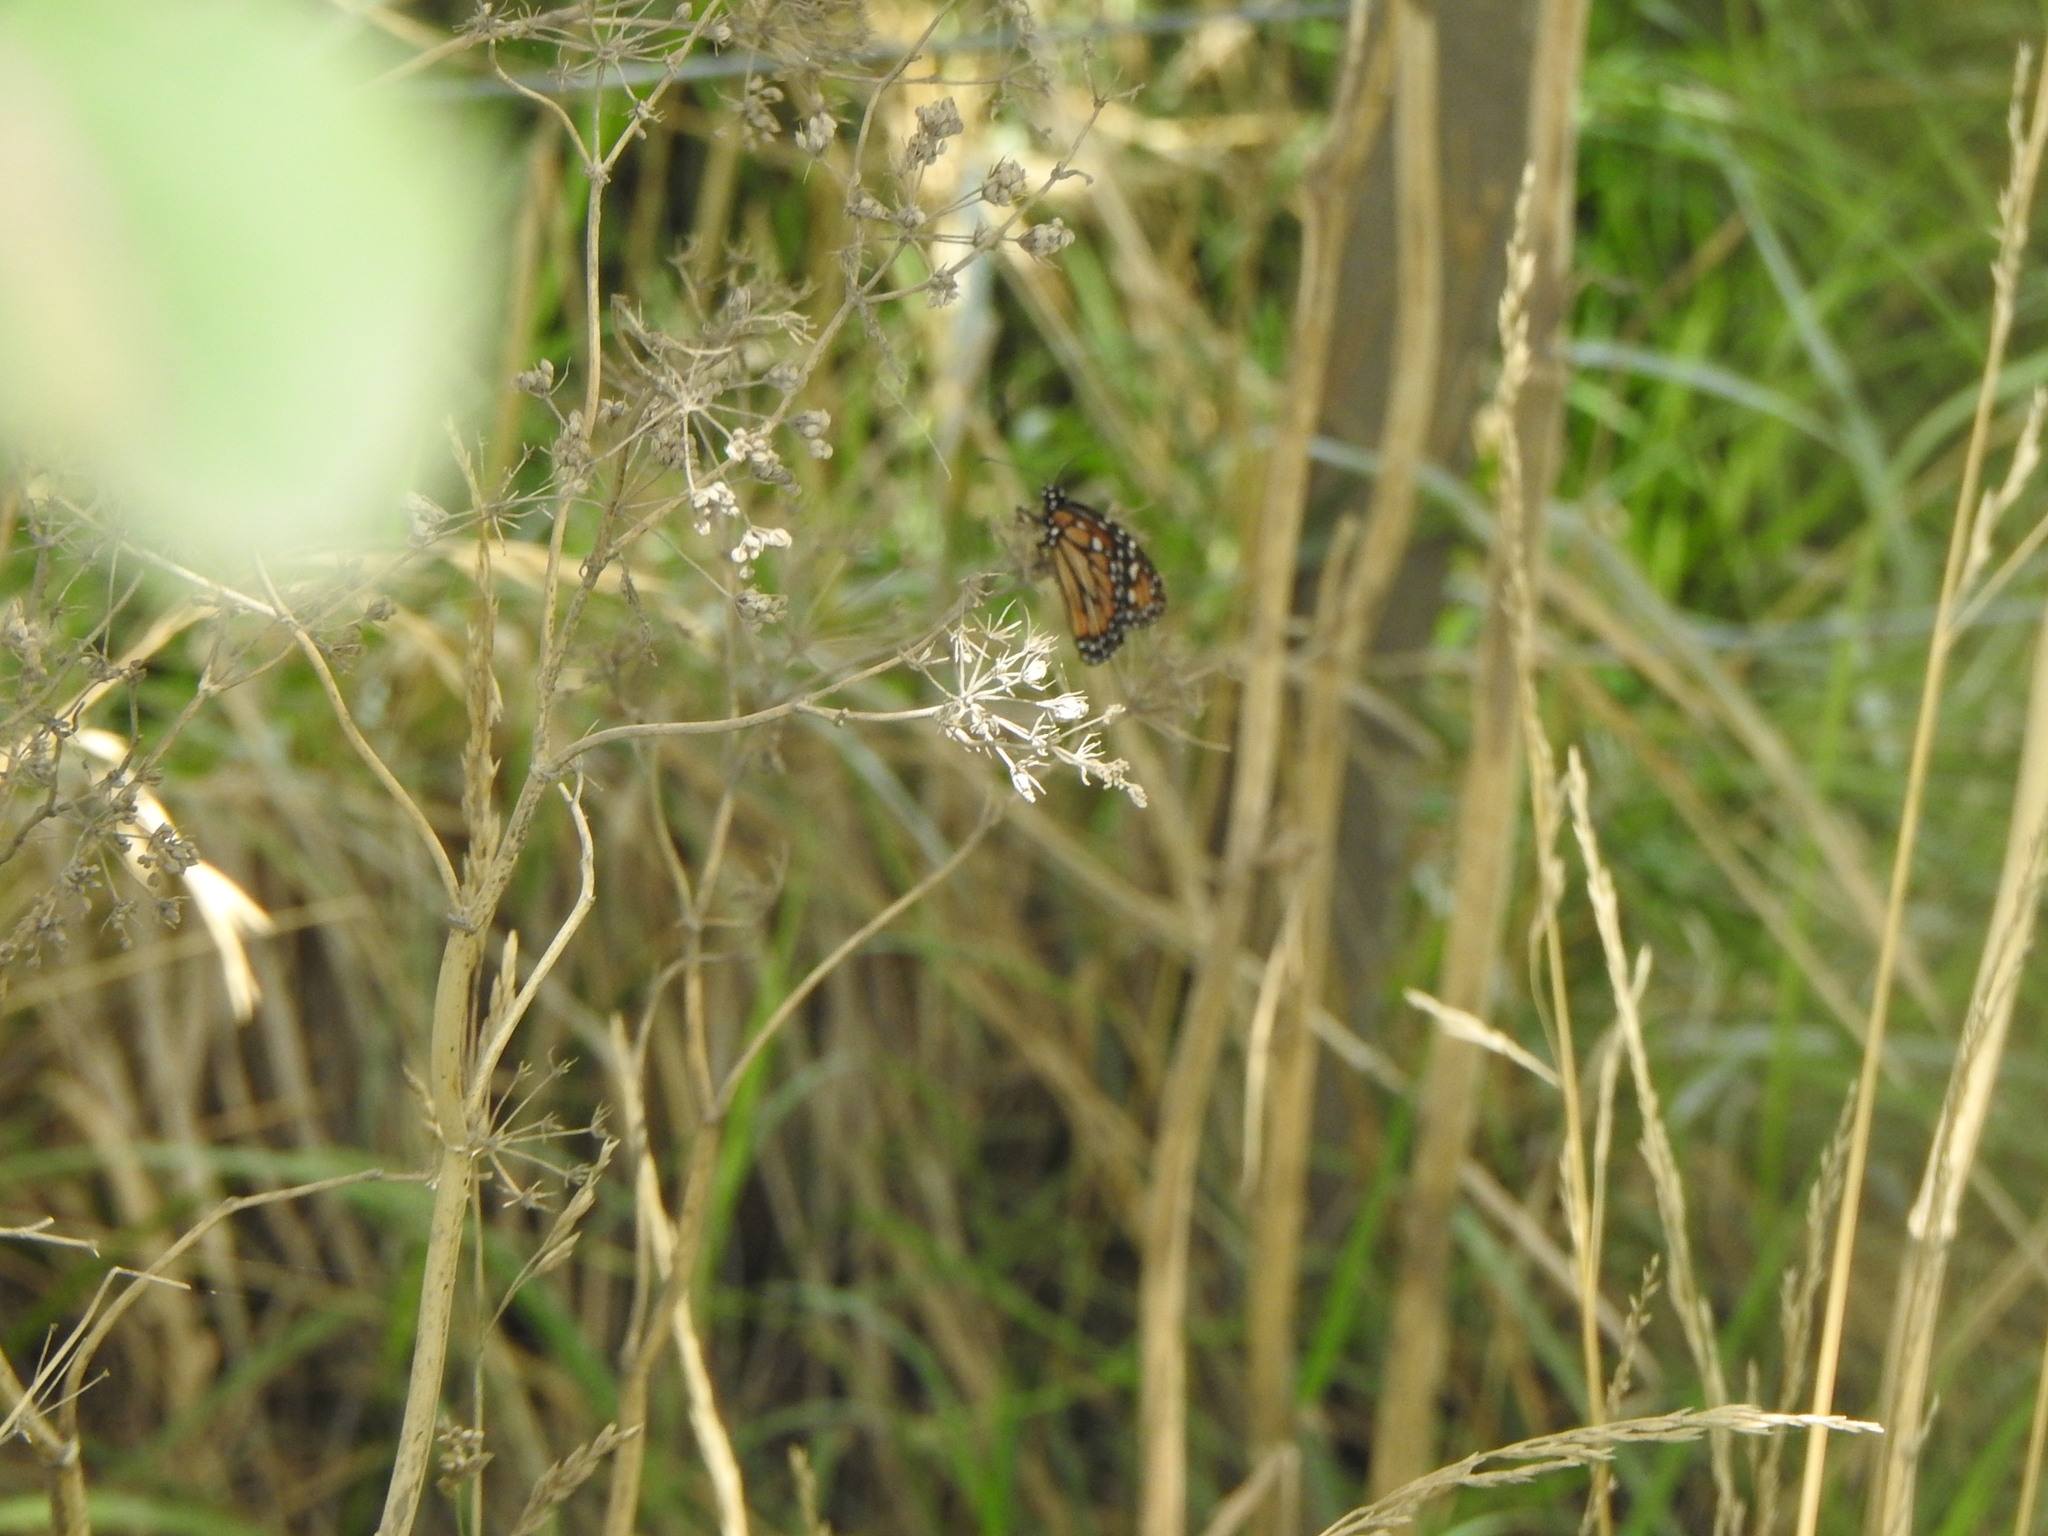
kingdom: Animalia
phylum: Arthropoda
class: Insecta
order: Lepidoptera
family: Nymphalidae
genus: Danaus
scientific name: Danaus erippus
